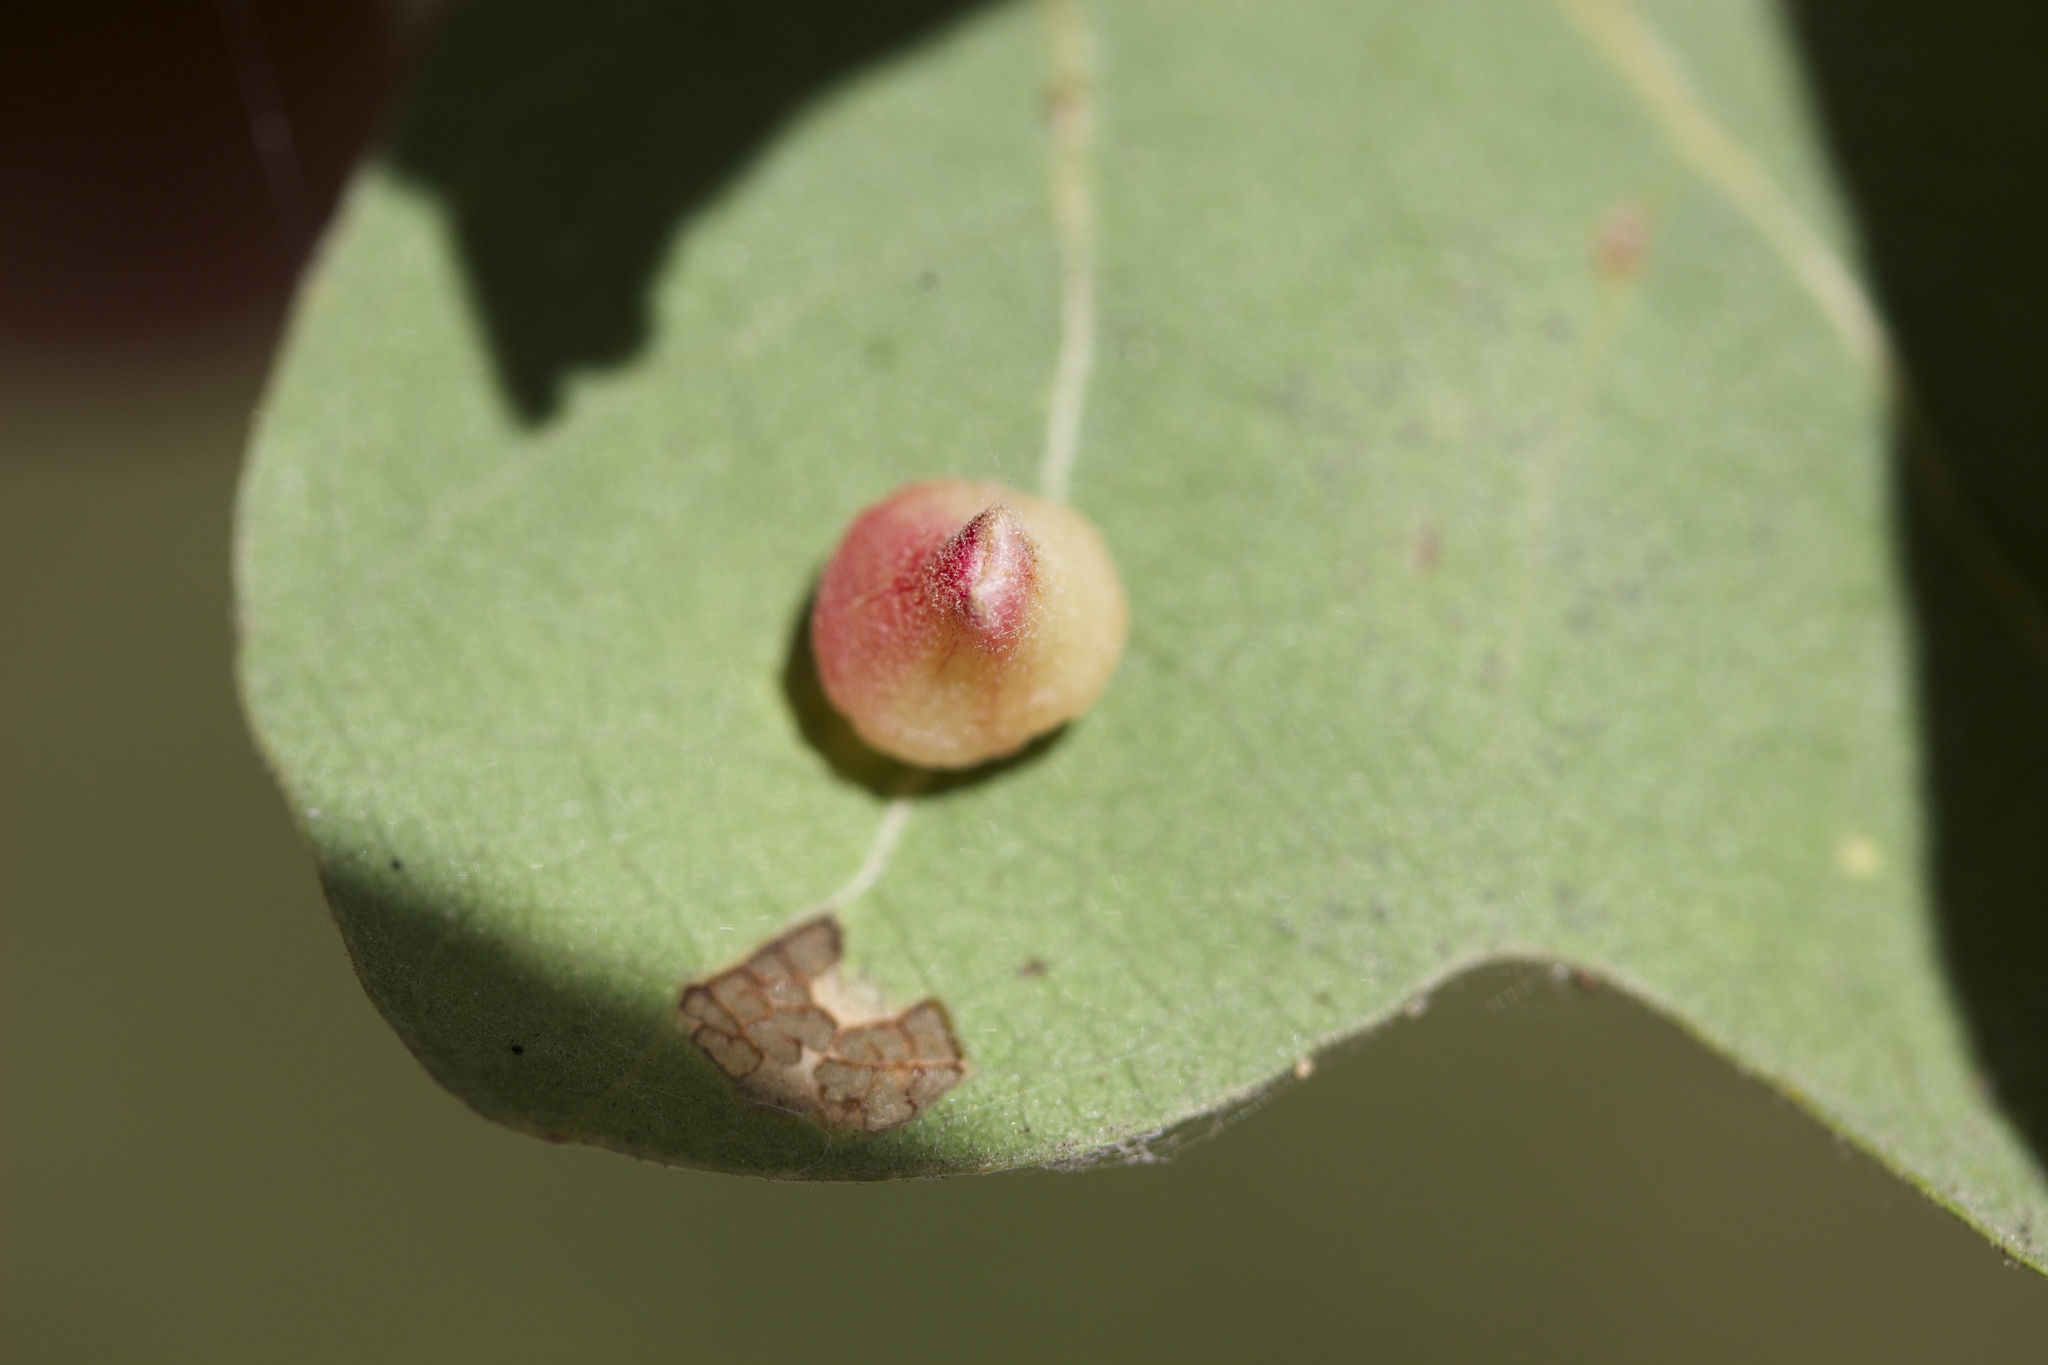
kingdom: Animalia
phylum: Arthropoda
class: Insecta
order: Hymenoptera
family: Cynipidae
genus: Andricus
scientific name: Andricus
